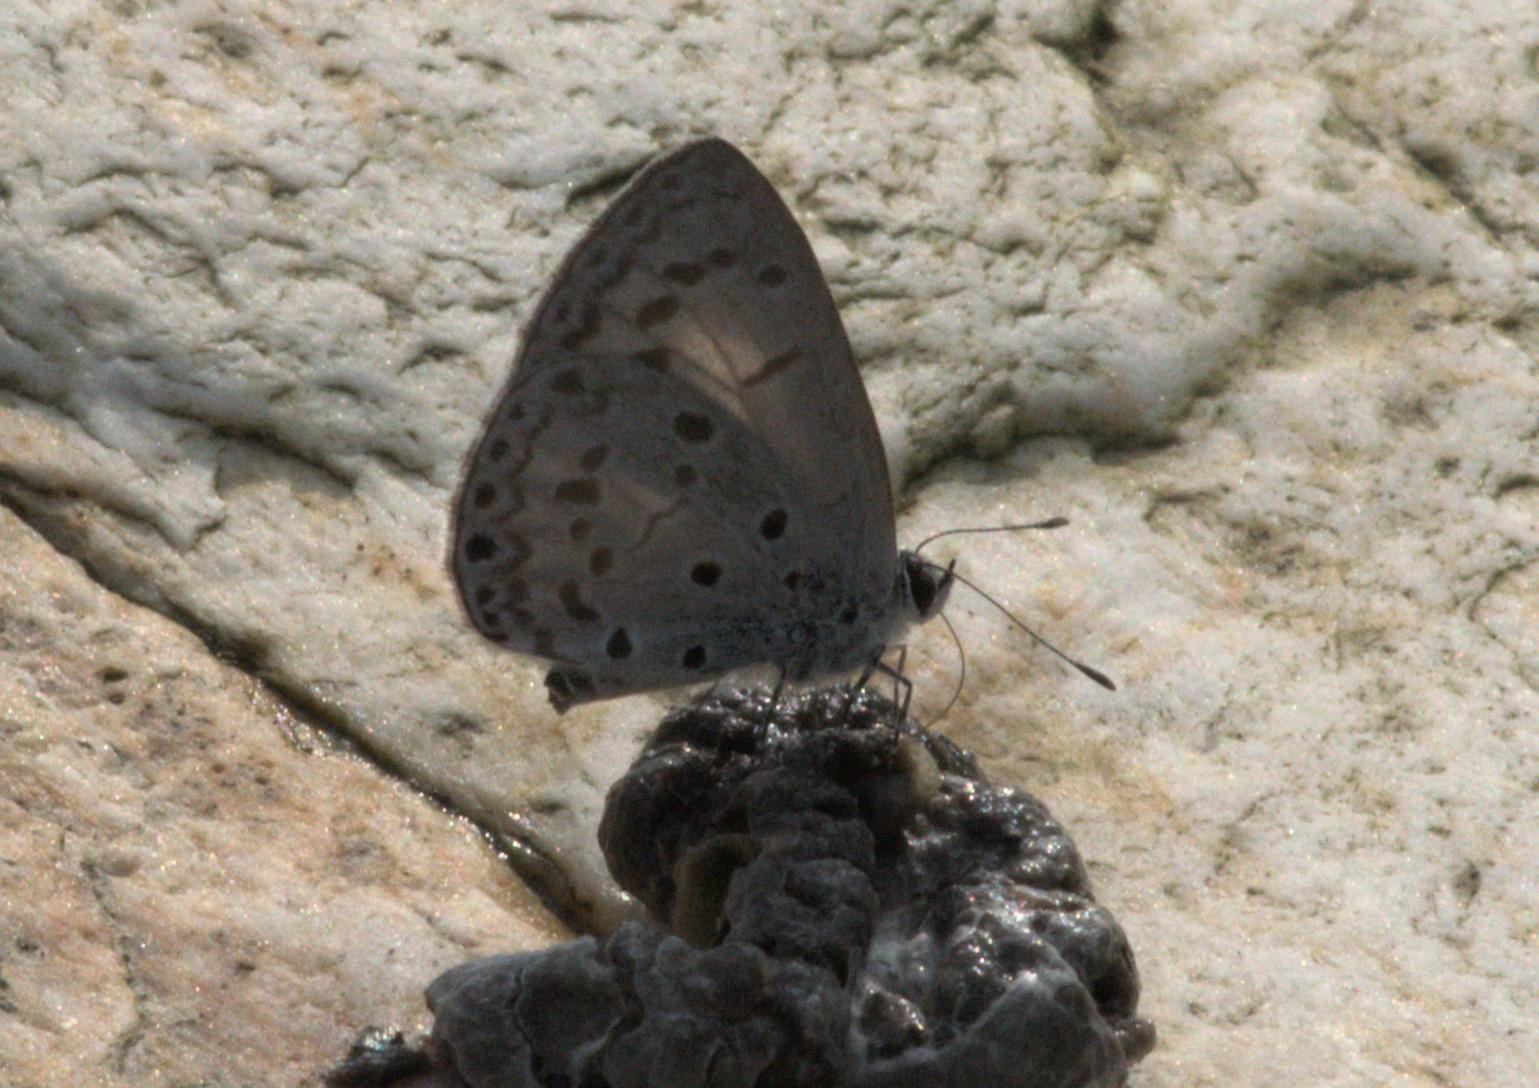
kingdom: Animalia
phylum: Arthropoda
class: Insecta
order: Lepidoptera
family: Lycaenidae
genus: Acytolepis
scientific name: Acytolepis puspa
